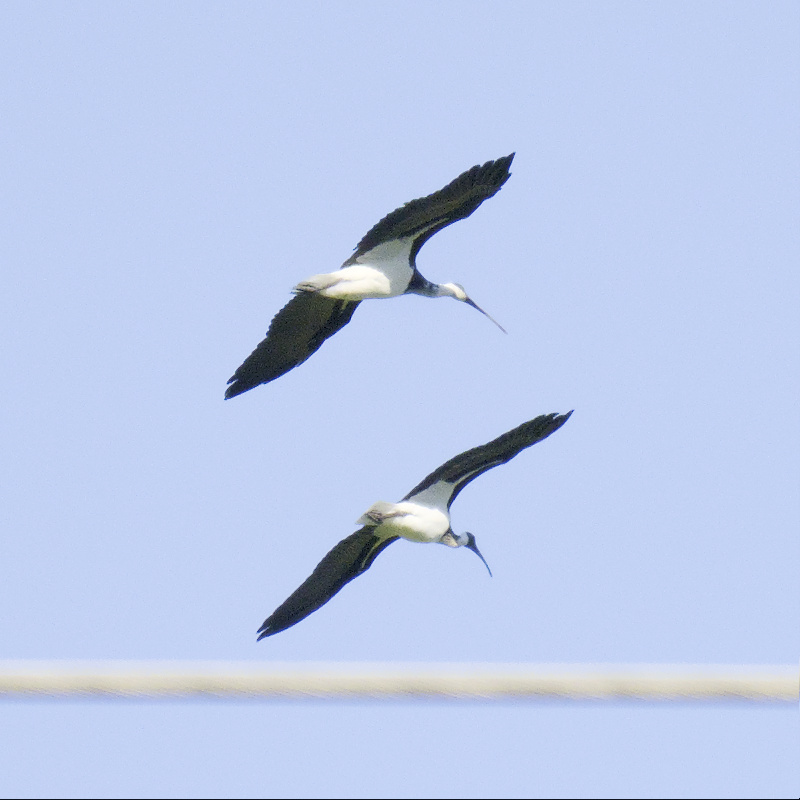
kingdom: Animalia
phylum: Chordata
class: Aves
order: Pelecaniformes
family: Threskiornithidae
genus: Threskiornis
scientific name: Threskiornis spinicollis
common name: Straw-necked ibis
